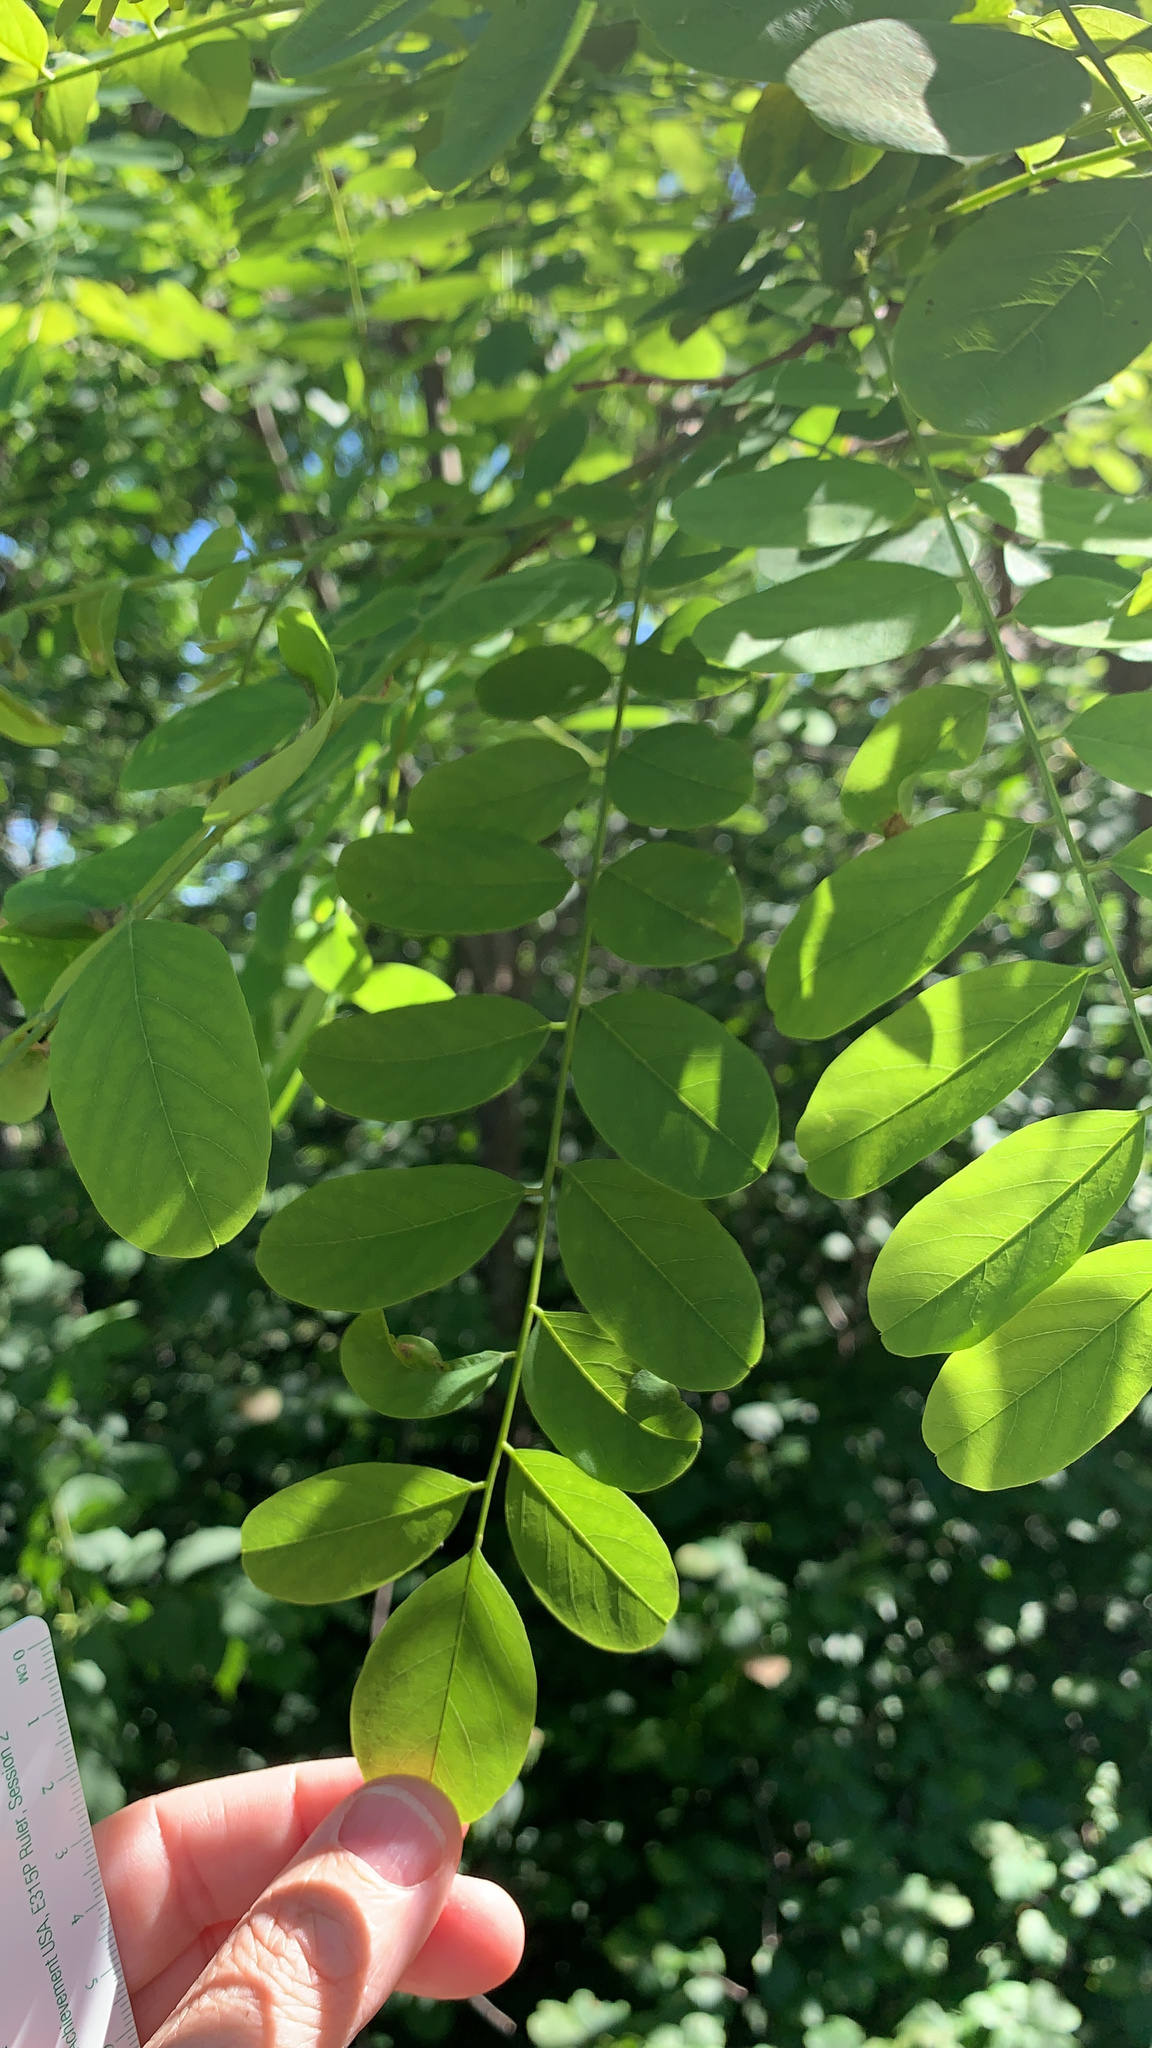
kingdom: Plantae
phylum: Tracheophyta
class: Magnoliopsida
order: Fabales
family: Fabaceae
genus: Robinia
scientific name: Robinia pseudoacacia
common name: Black locust
